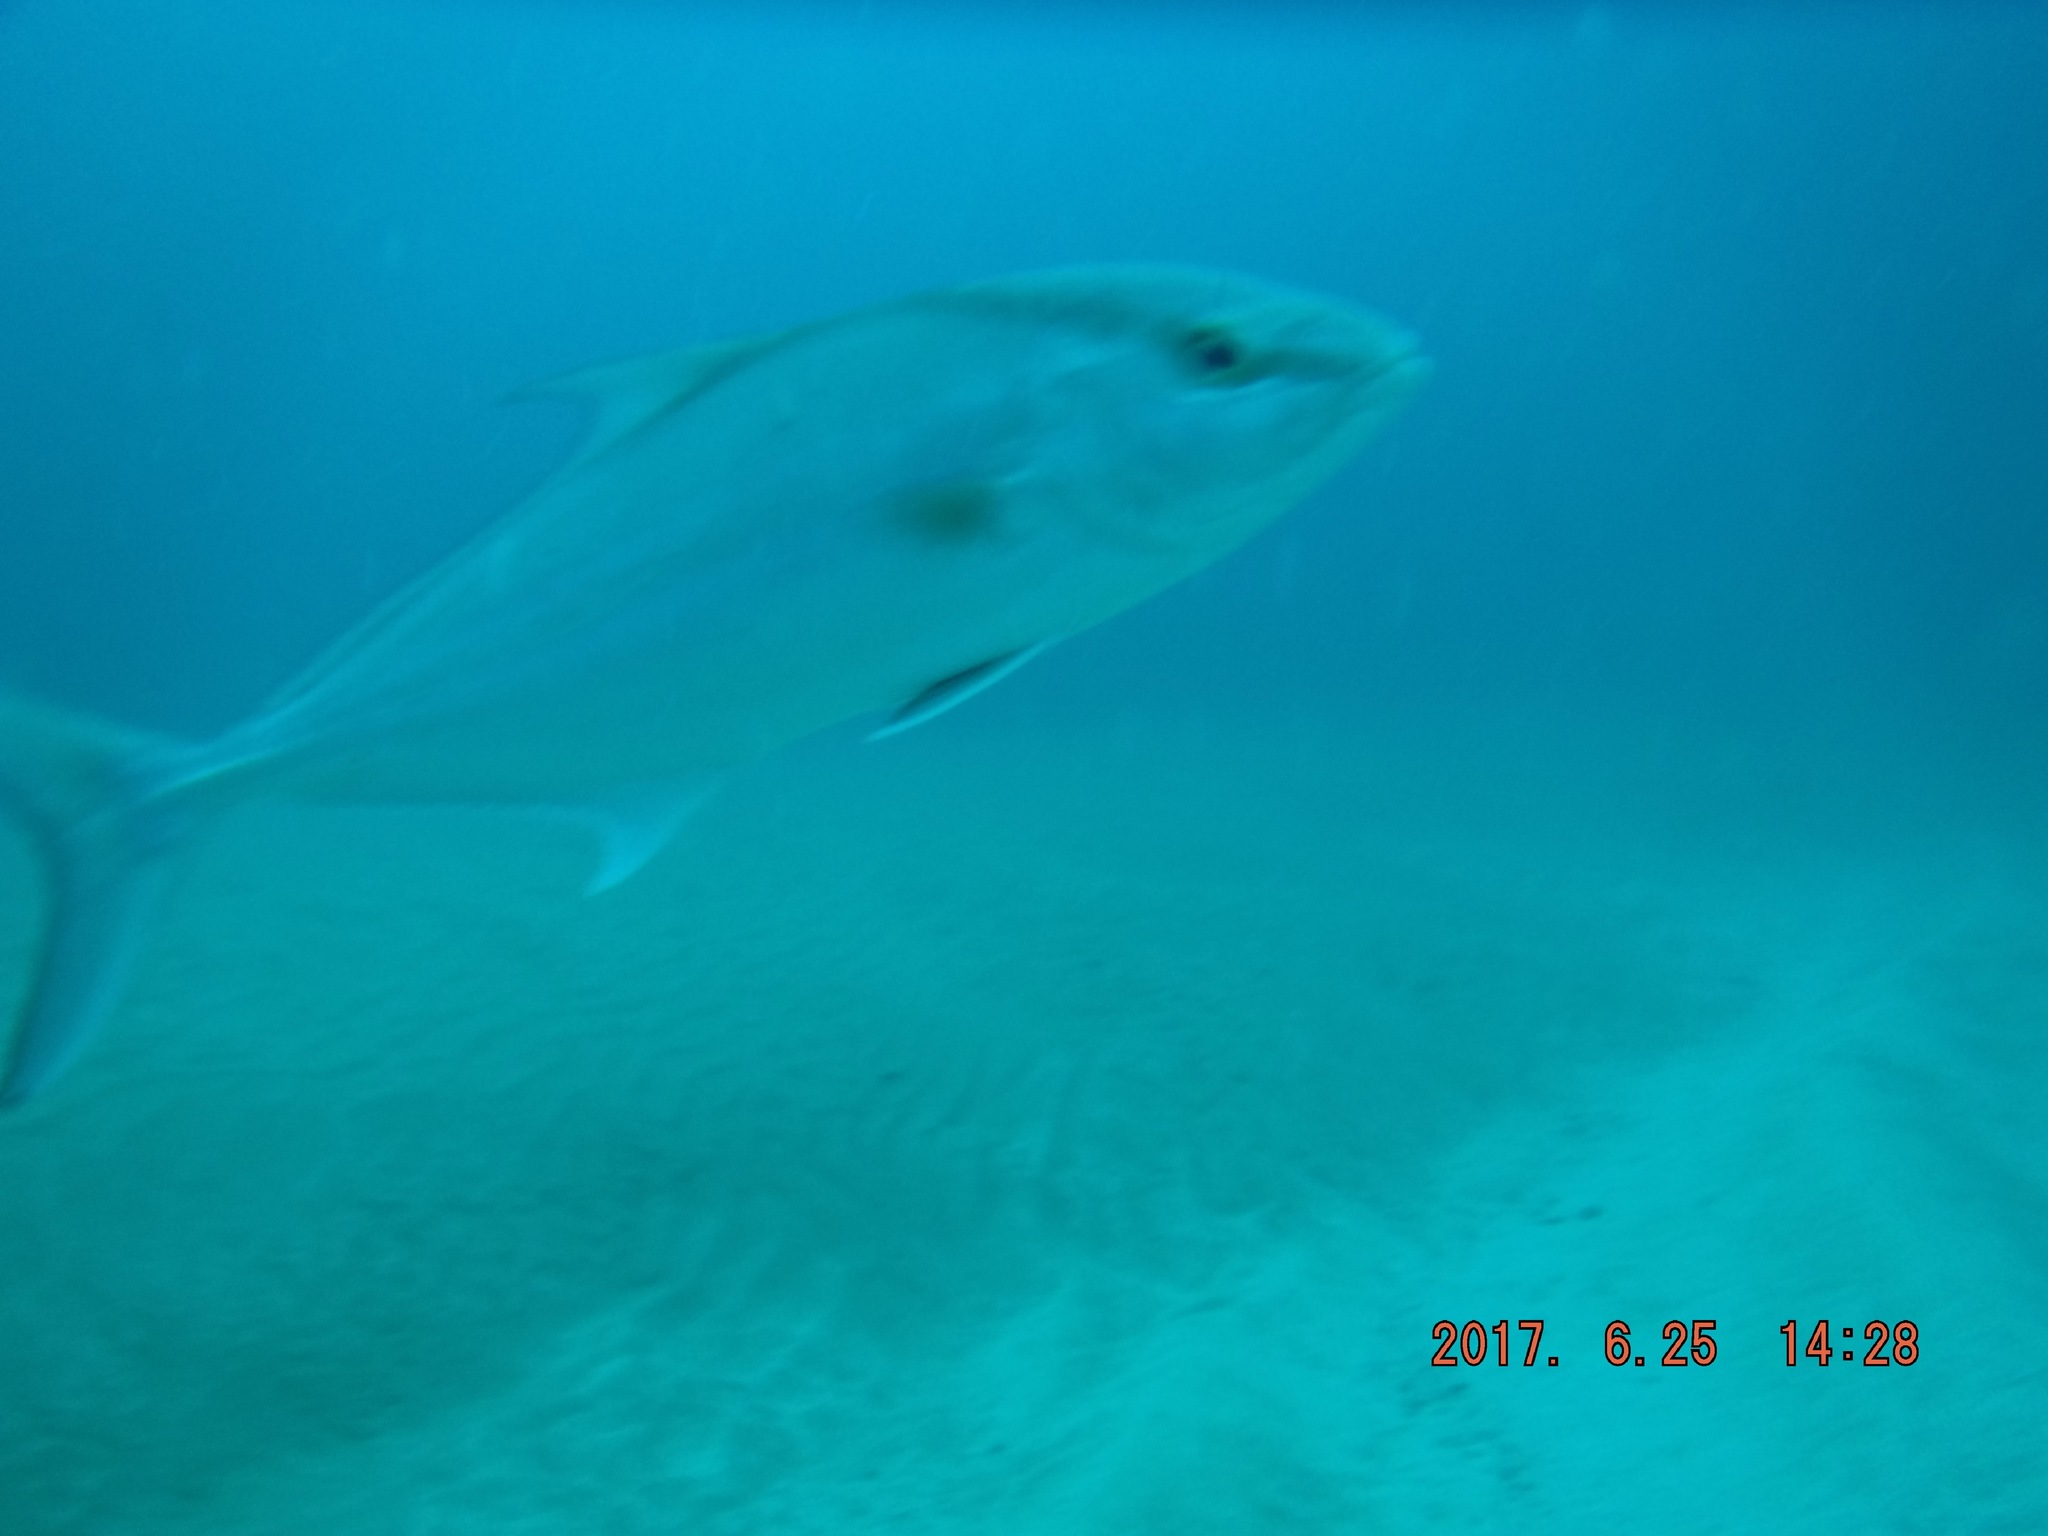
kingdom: Animalia
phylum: Chordata
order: Perciformes
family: Carangidae
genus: Seriola
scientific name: Seriola rivoliana
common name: Almaco jack
